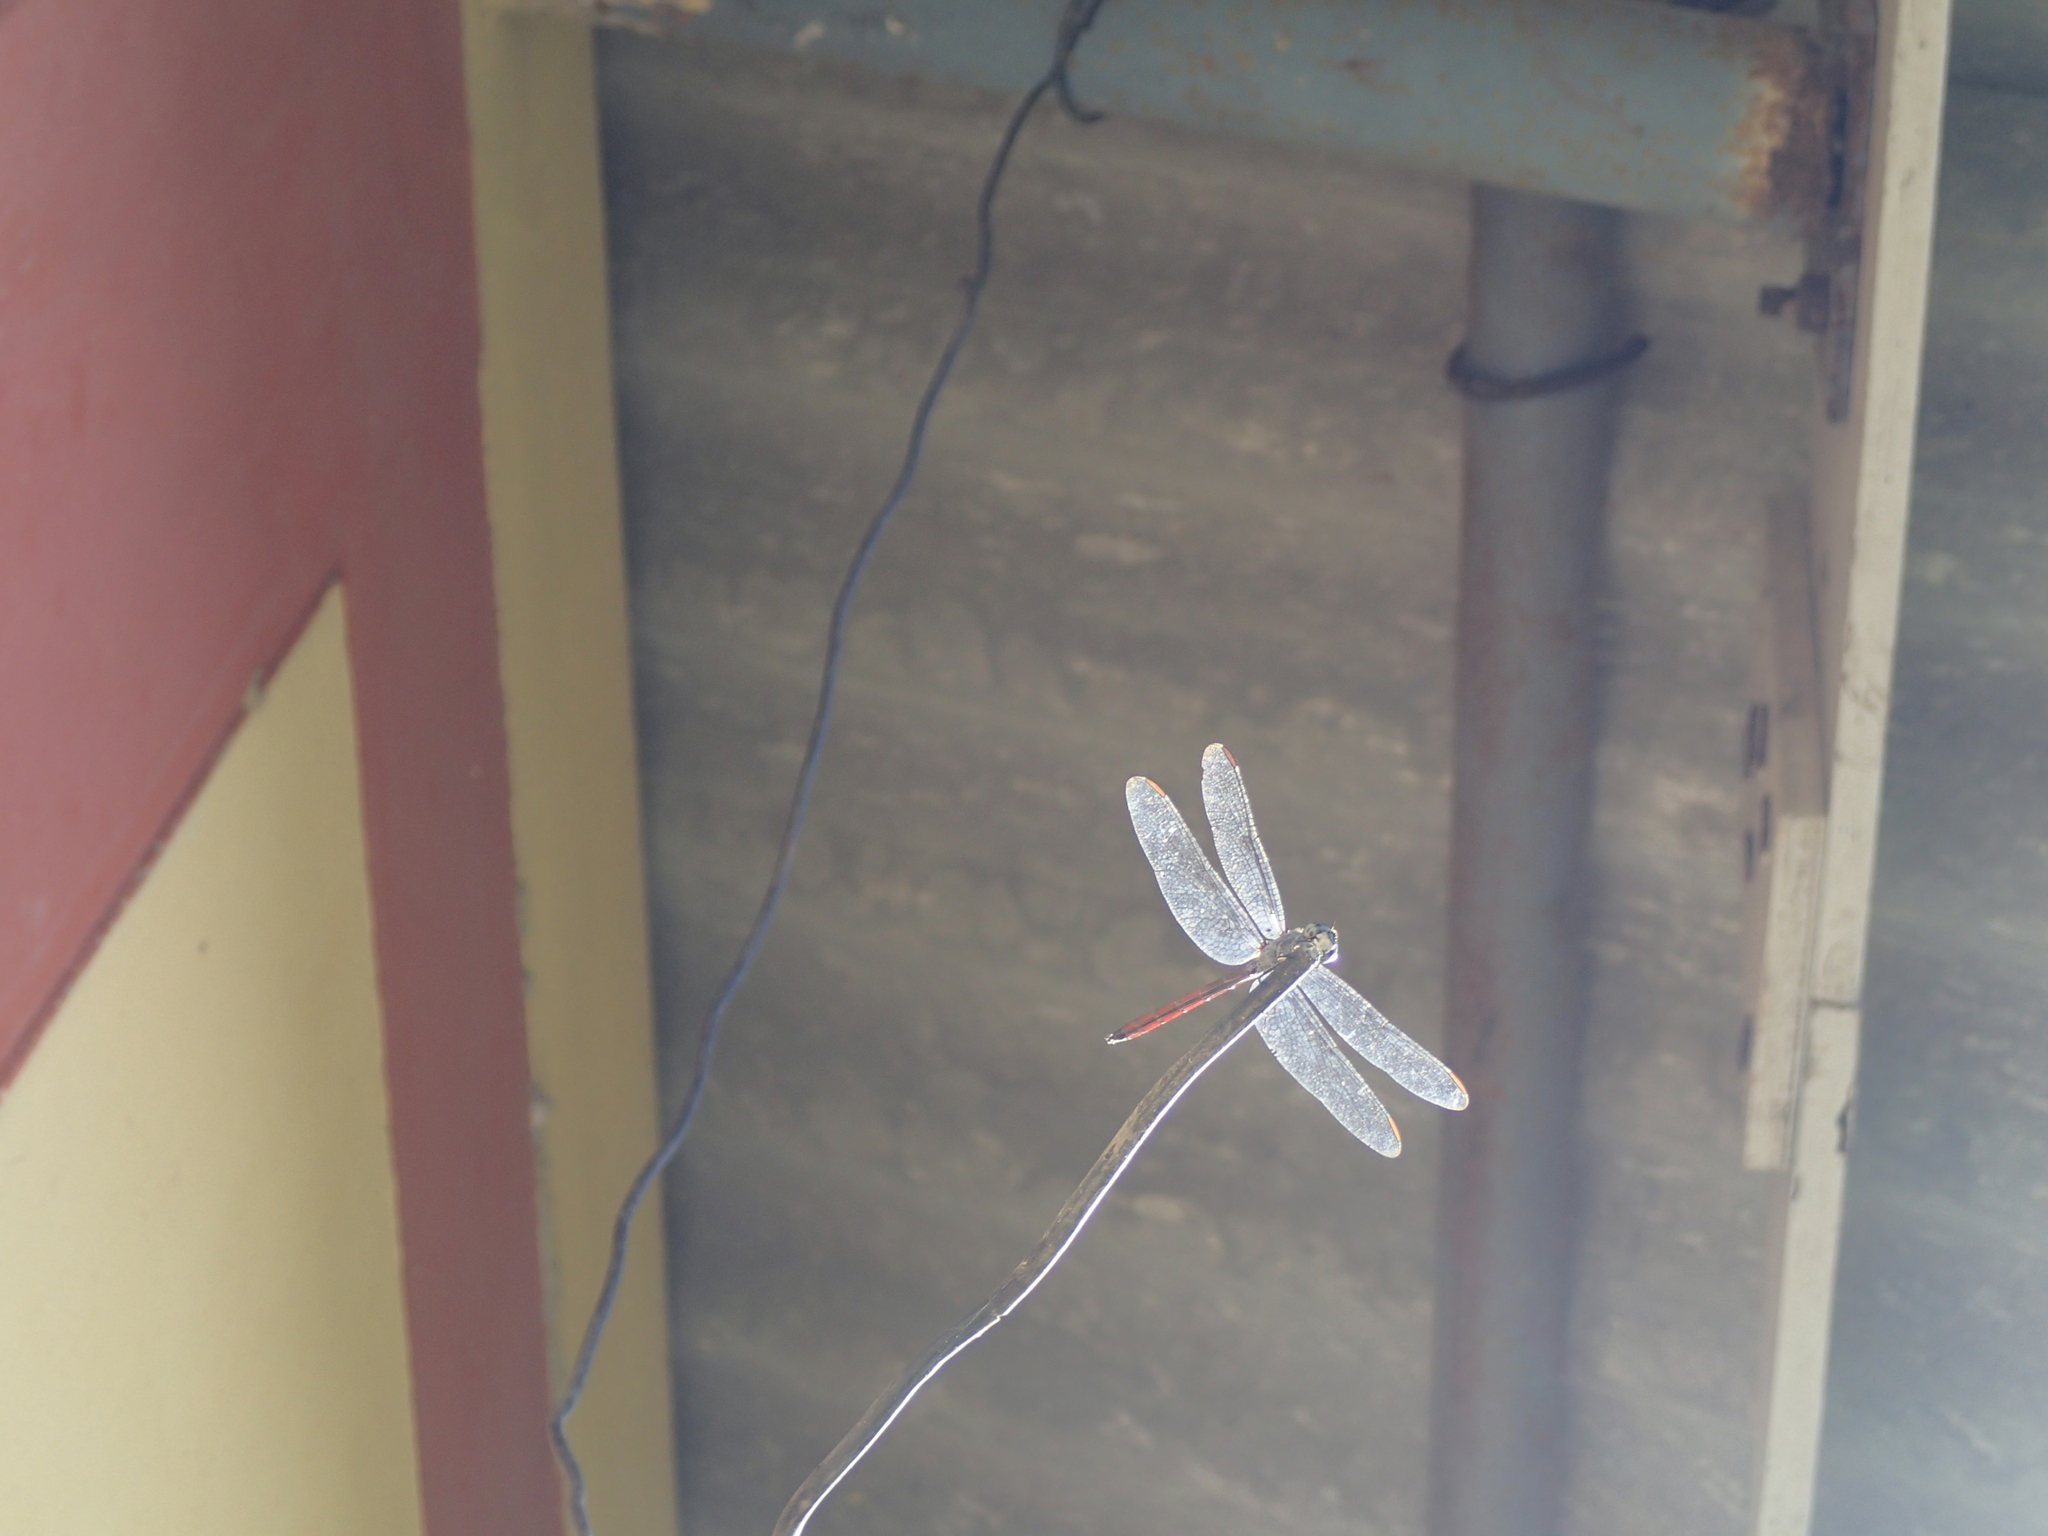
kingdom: Animalia
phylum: Arthropoda
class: Insecta
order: Odonata
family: Libellulidae
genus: Lathrecista
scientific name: Lathrecista asiatica
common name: Scarlet grenadier
